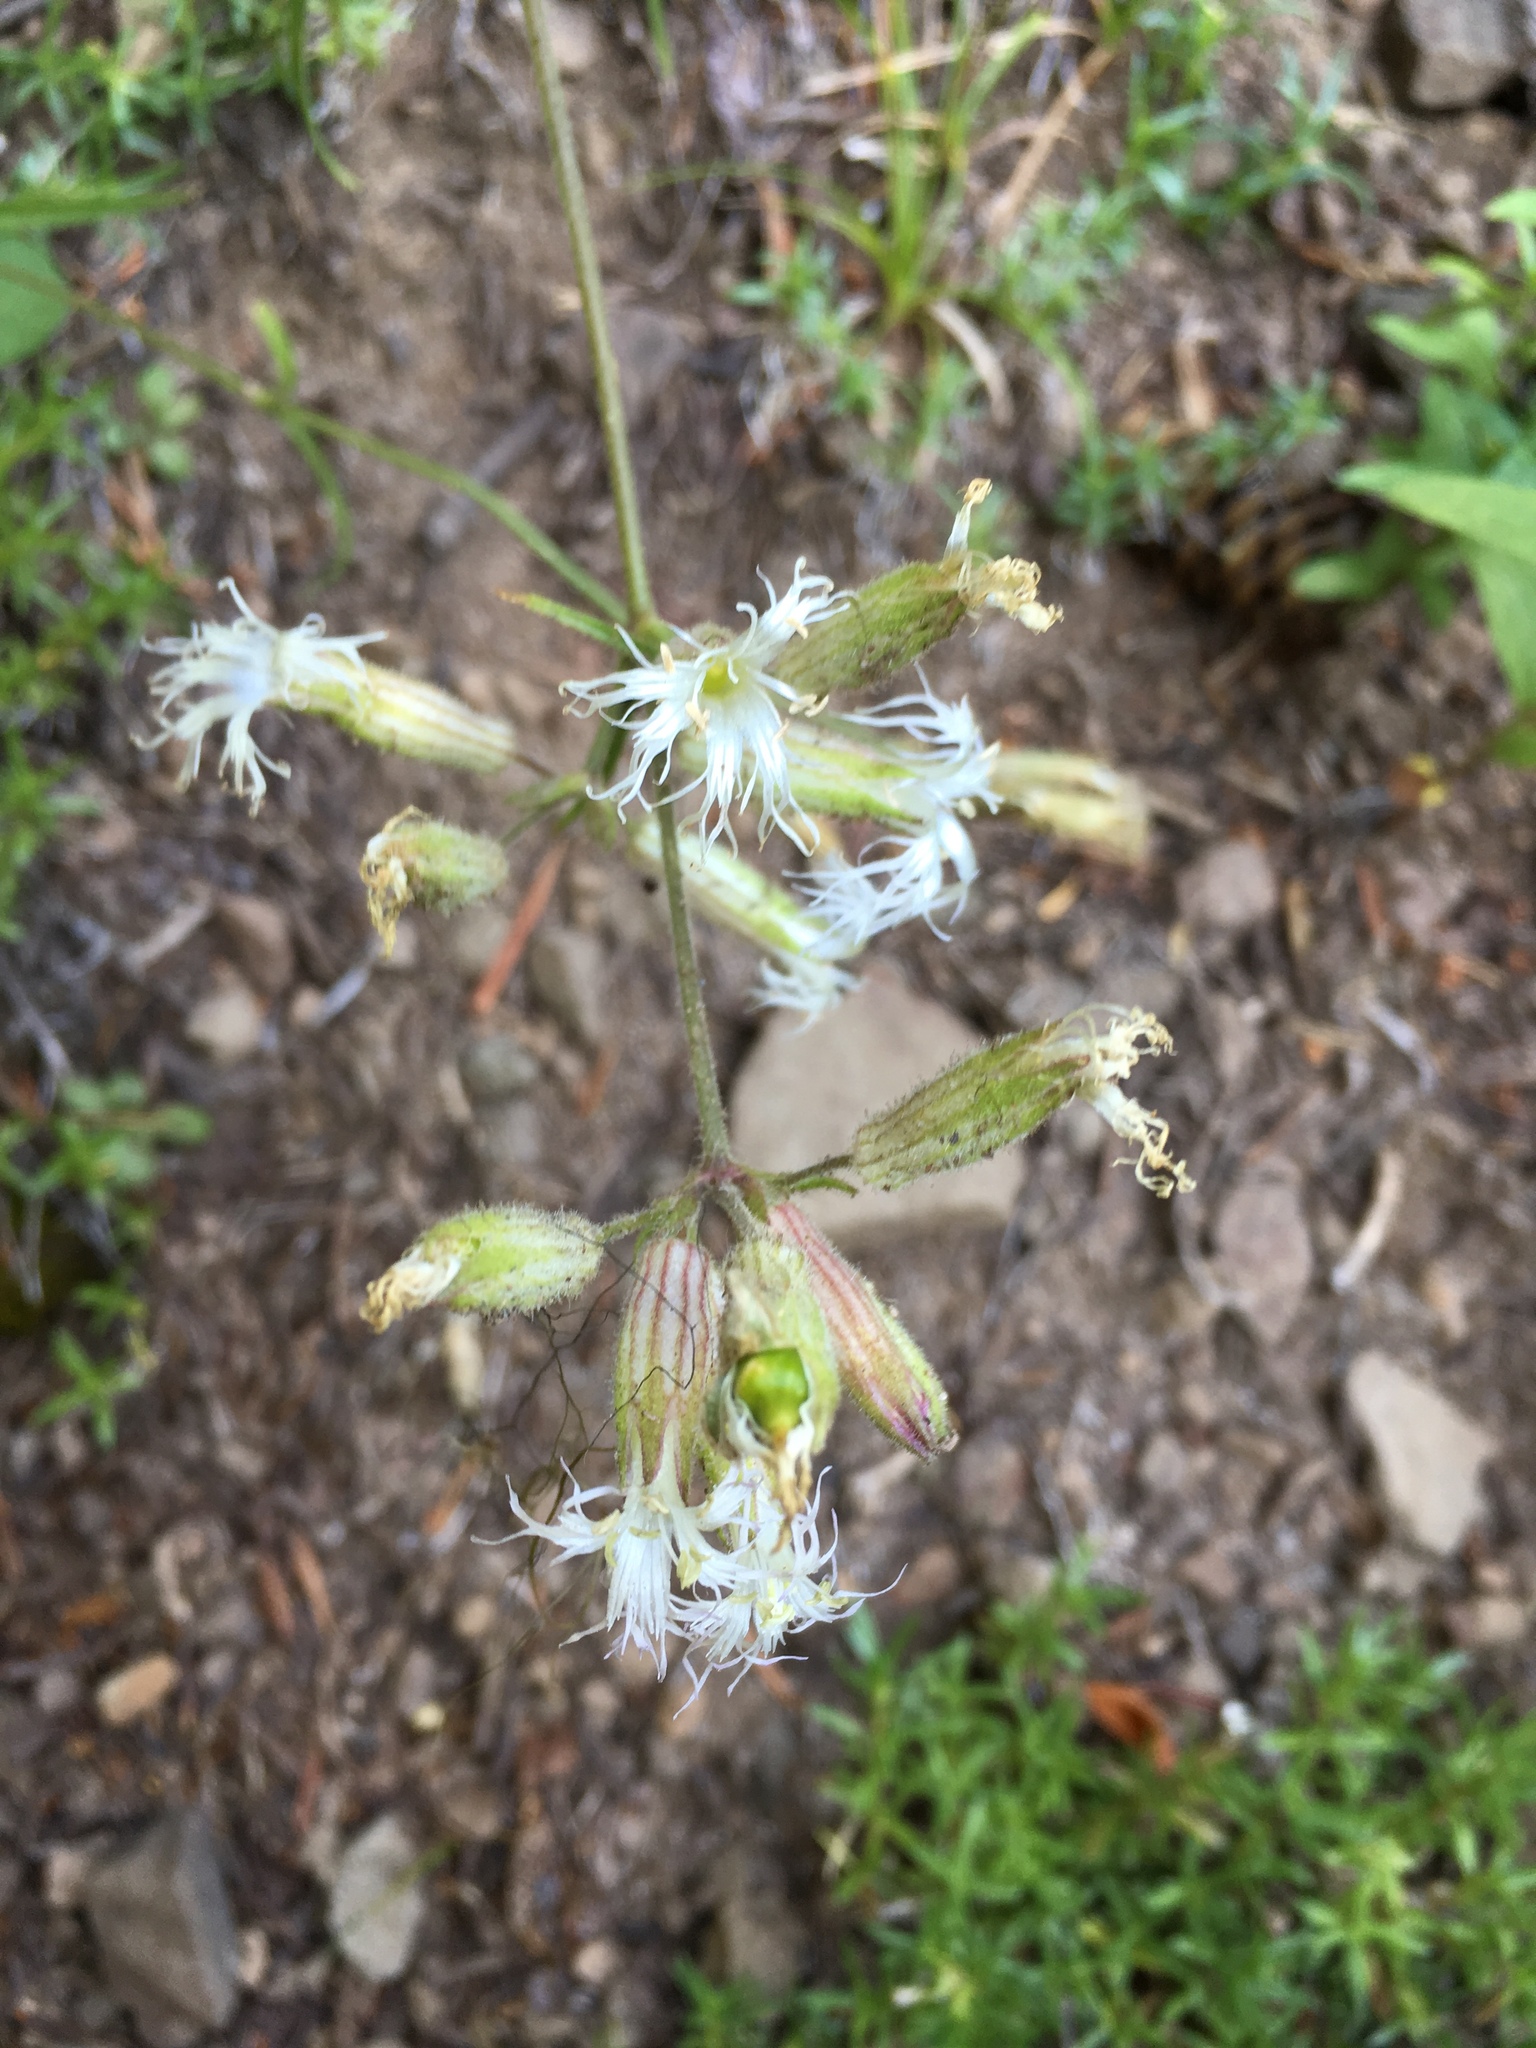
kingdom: Plantae
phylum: Tracheophyta
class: Magnoliopsida
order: Caryophyllales
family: Caryophyllaceae
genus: Silene
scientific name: Silene oregana
